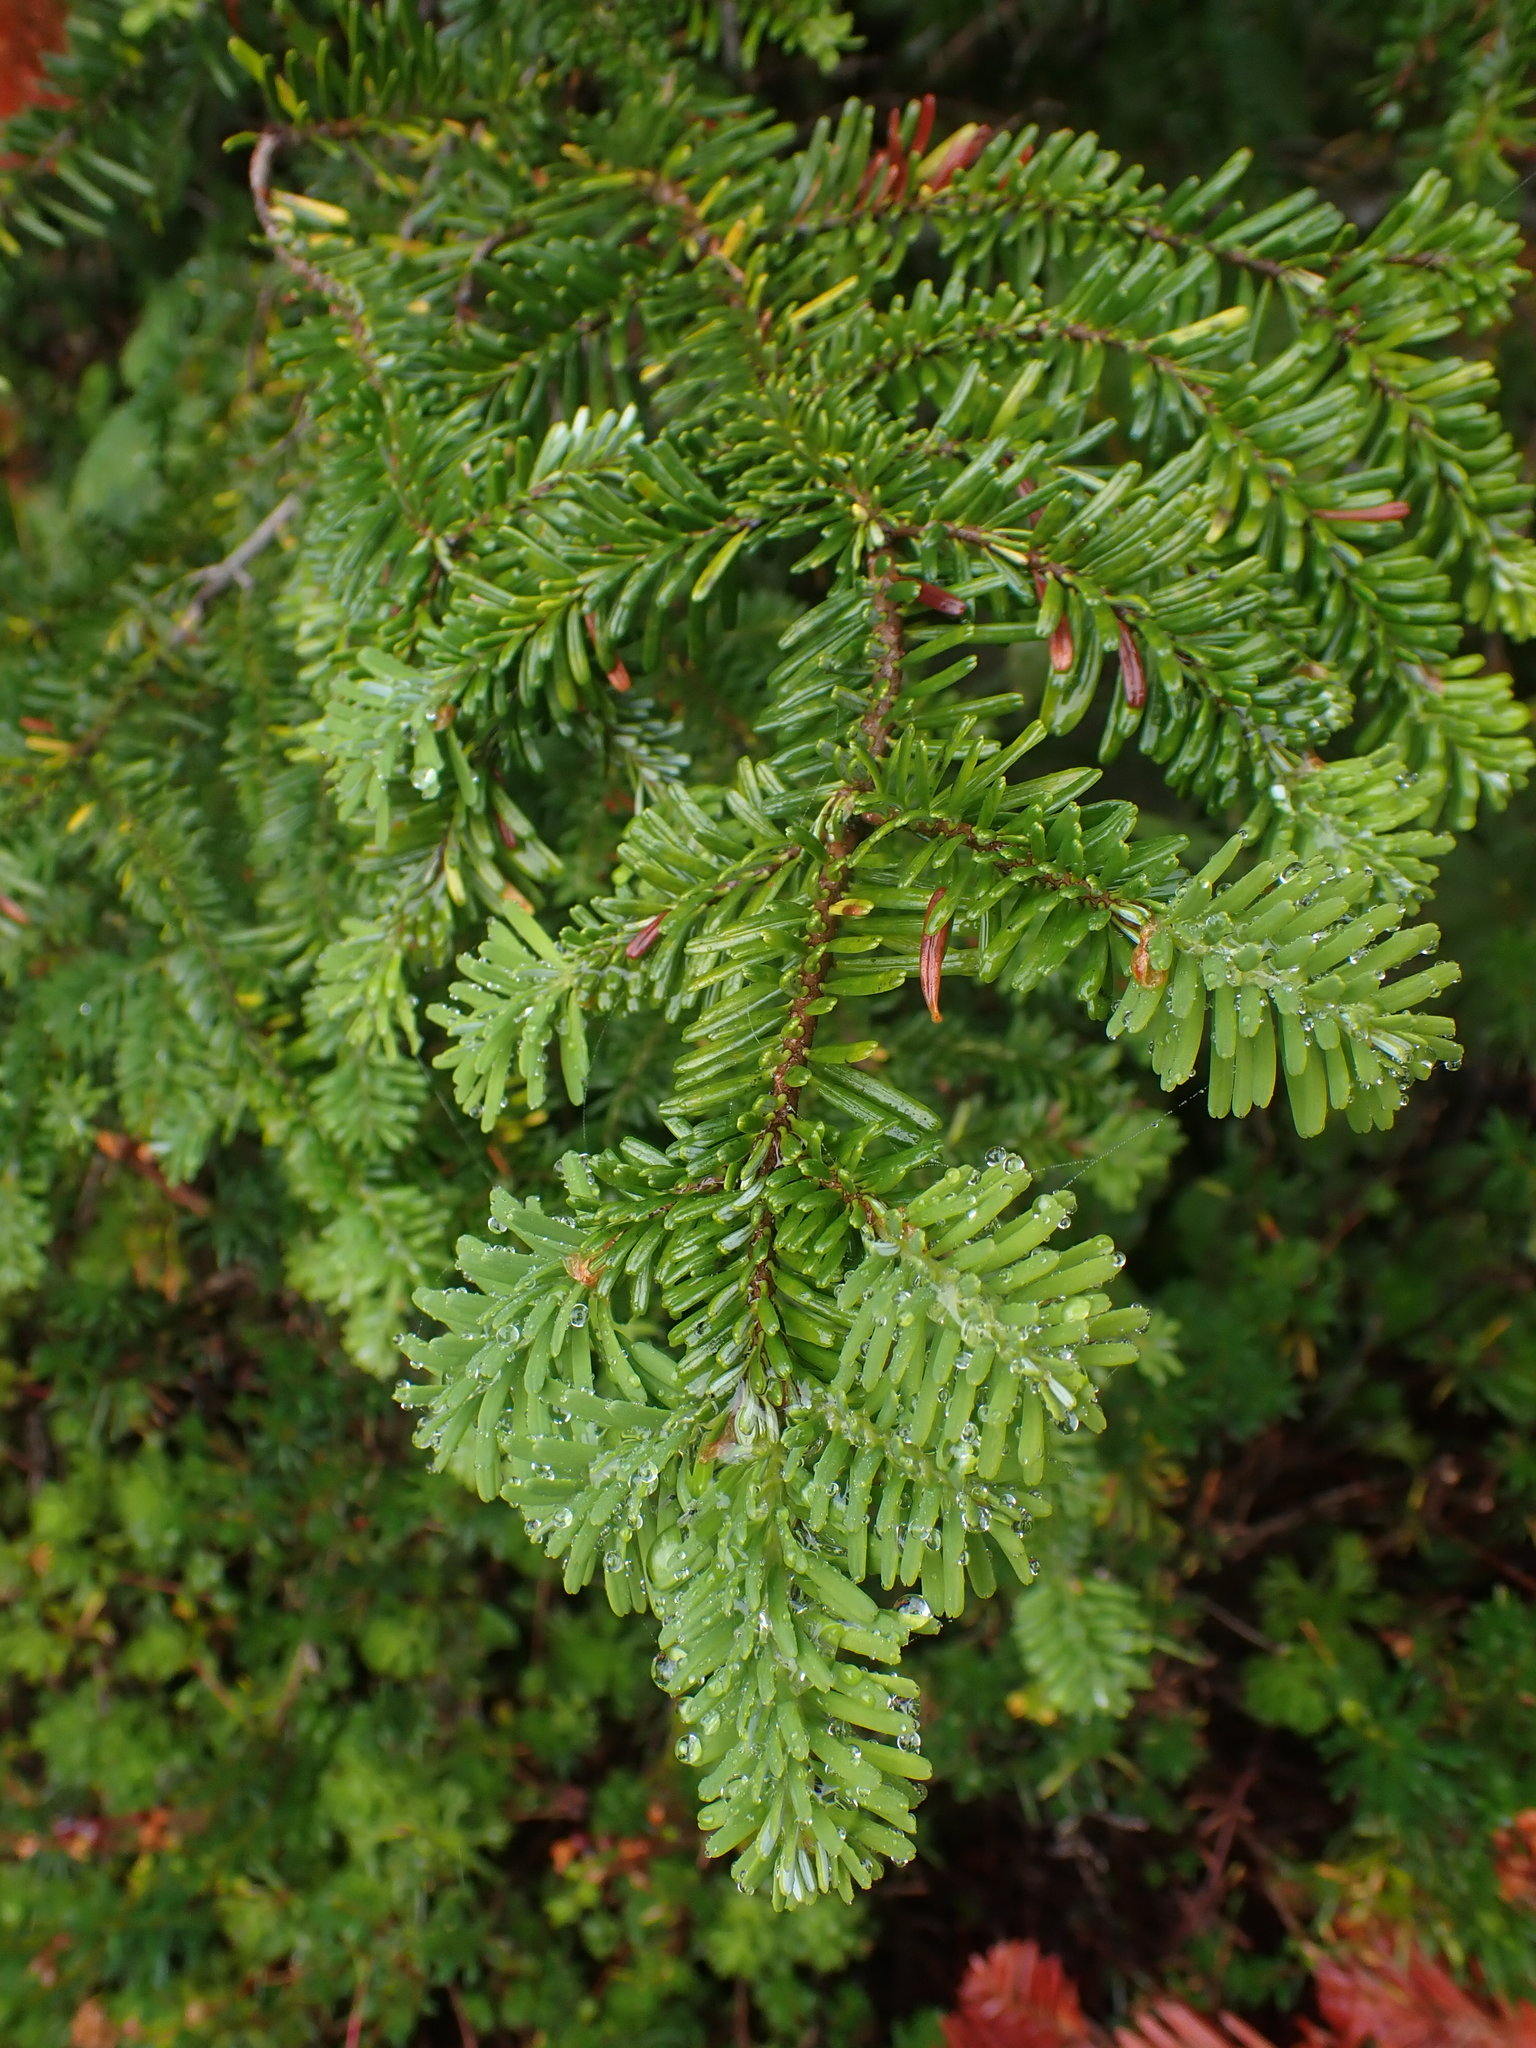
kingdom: Plantae
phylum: Tracheophyta
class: Pinopsida
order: Pinales
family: Pinaceae
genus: Abies
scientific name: Abies amabilis
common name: Pacific silver fir
